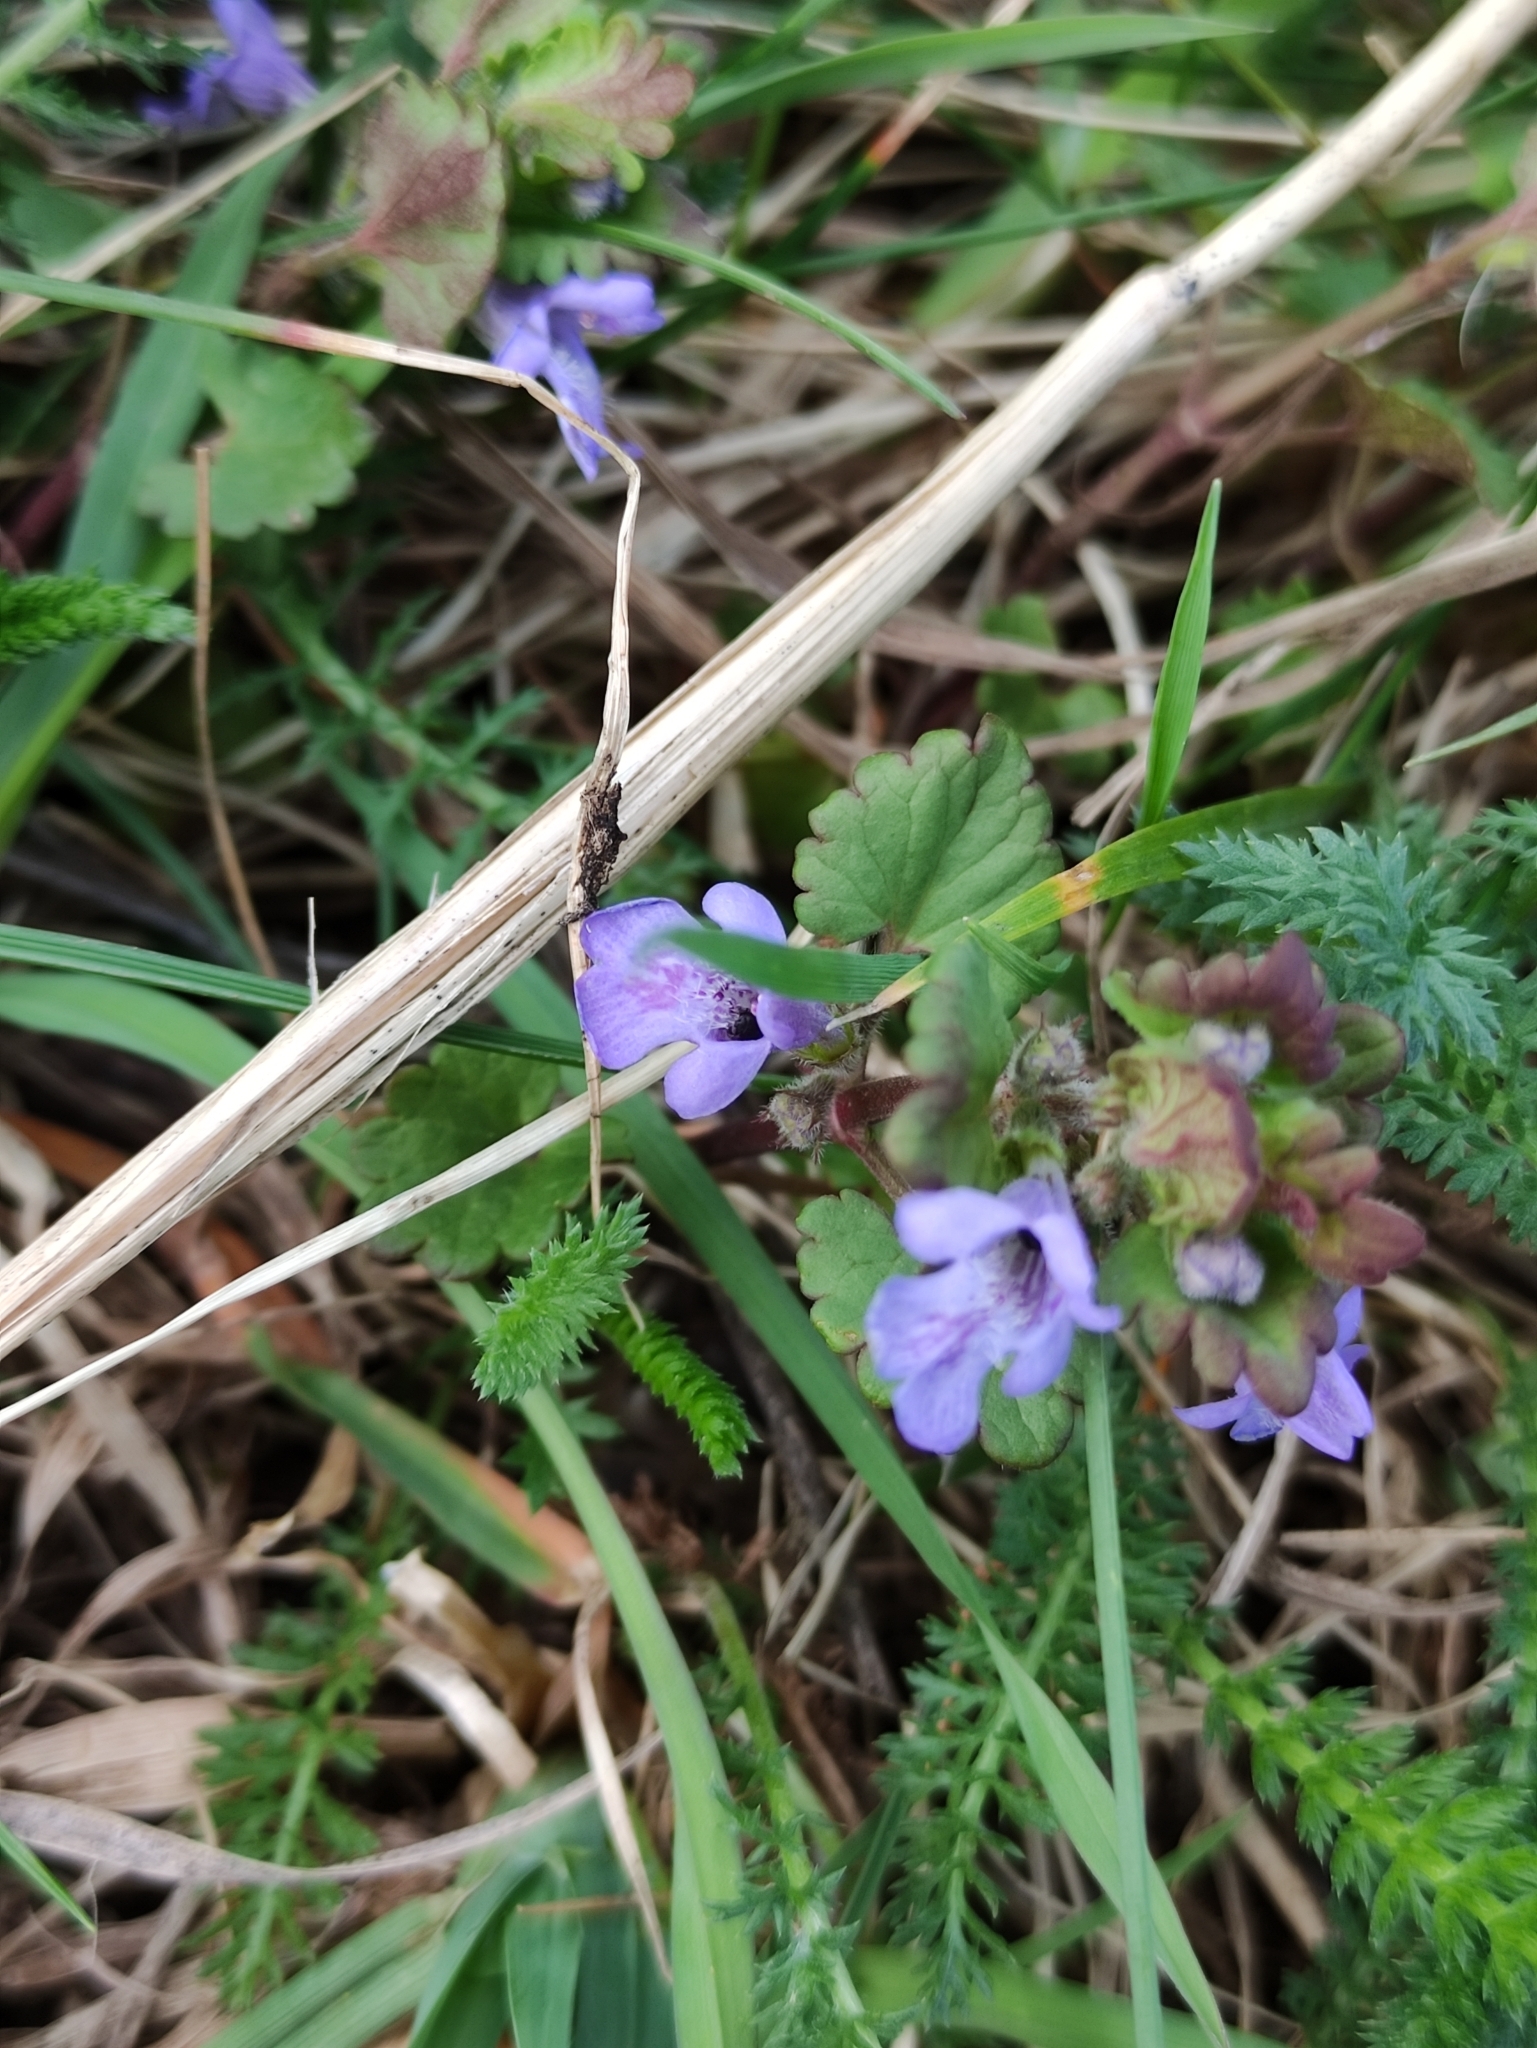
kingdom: Plantae
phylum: Tracheophyta
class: Magnoliopsida
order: Lamiales
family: Lamiaceae
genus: Glechoma
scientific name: Glechoma hederacea
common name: Ground ivy
